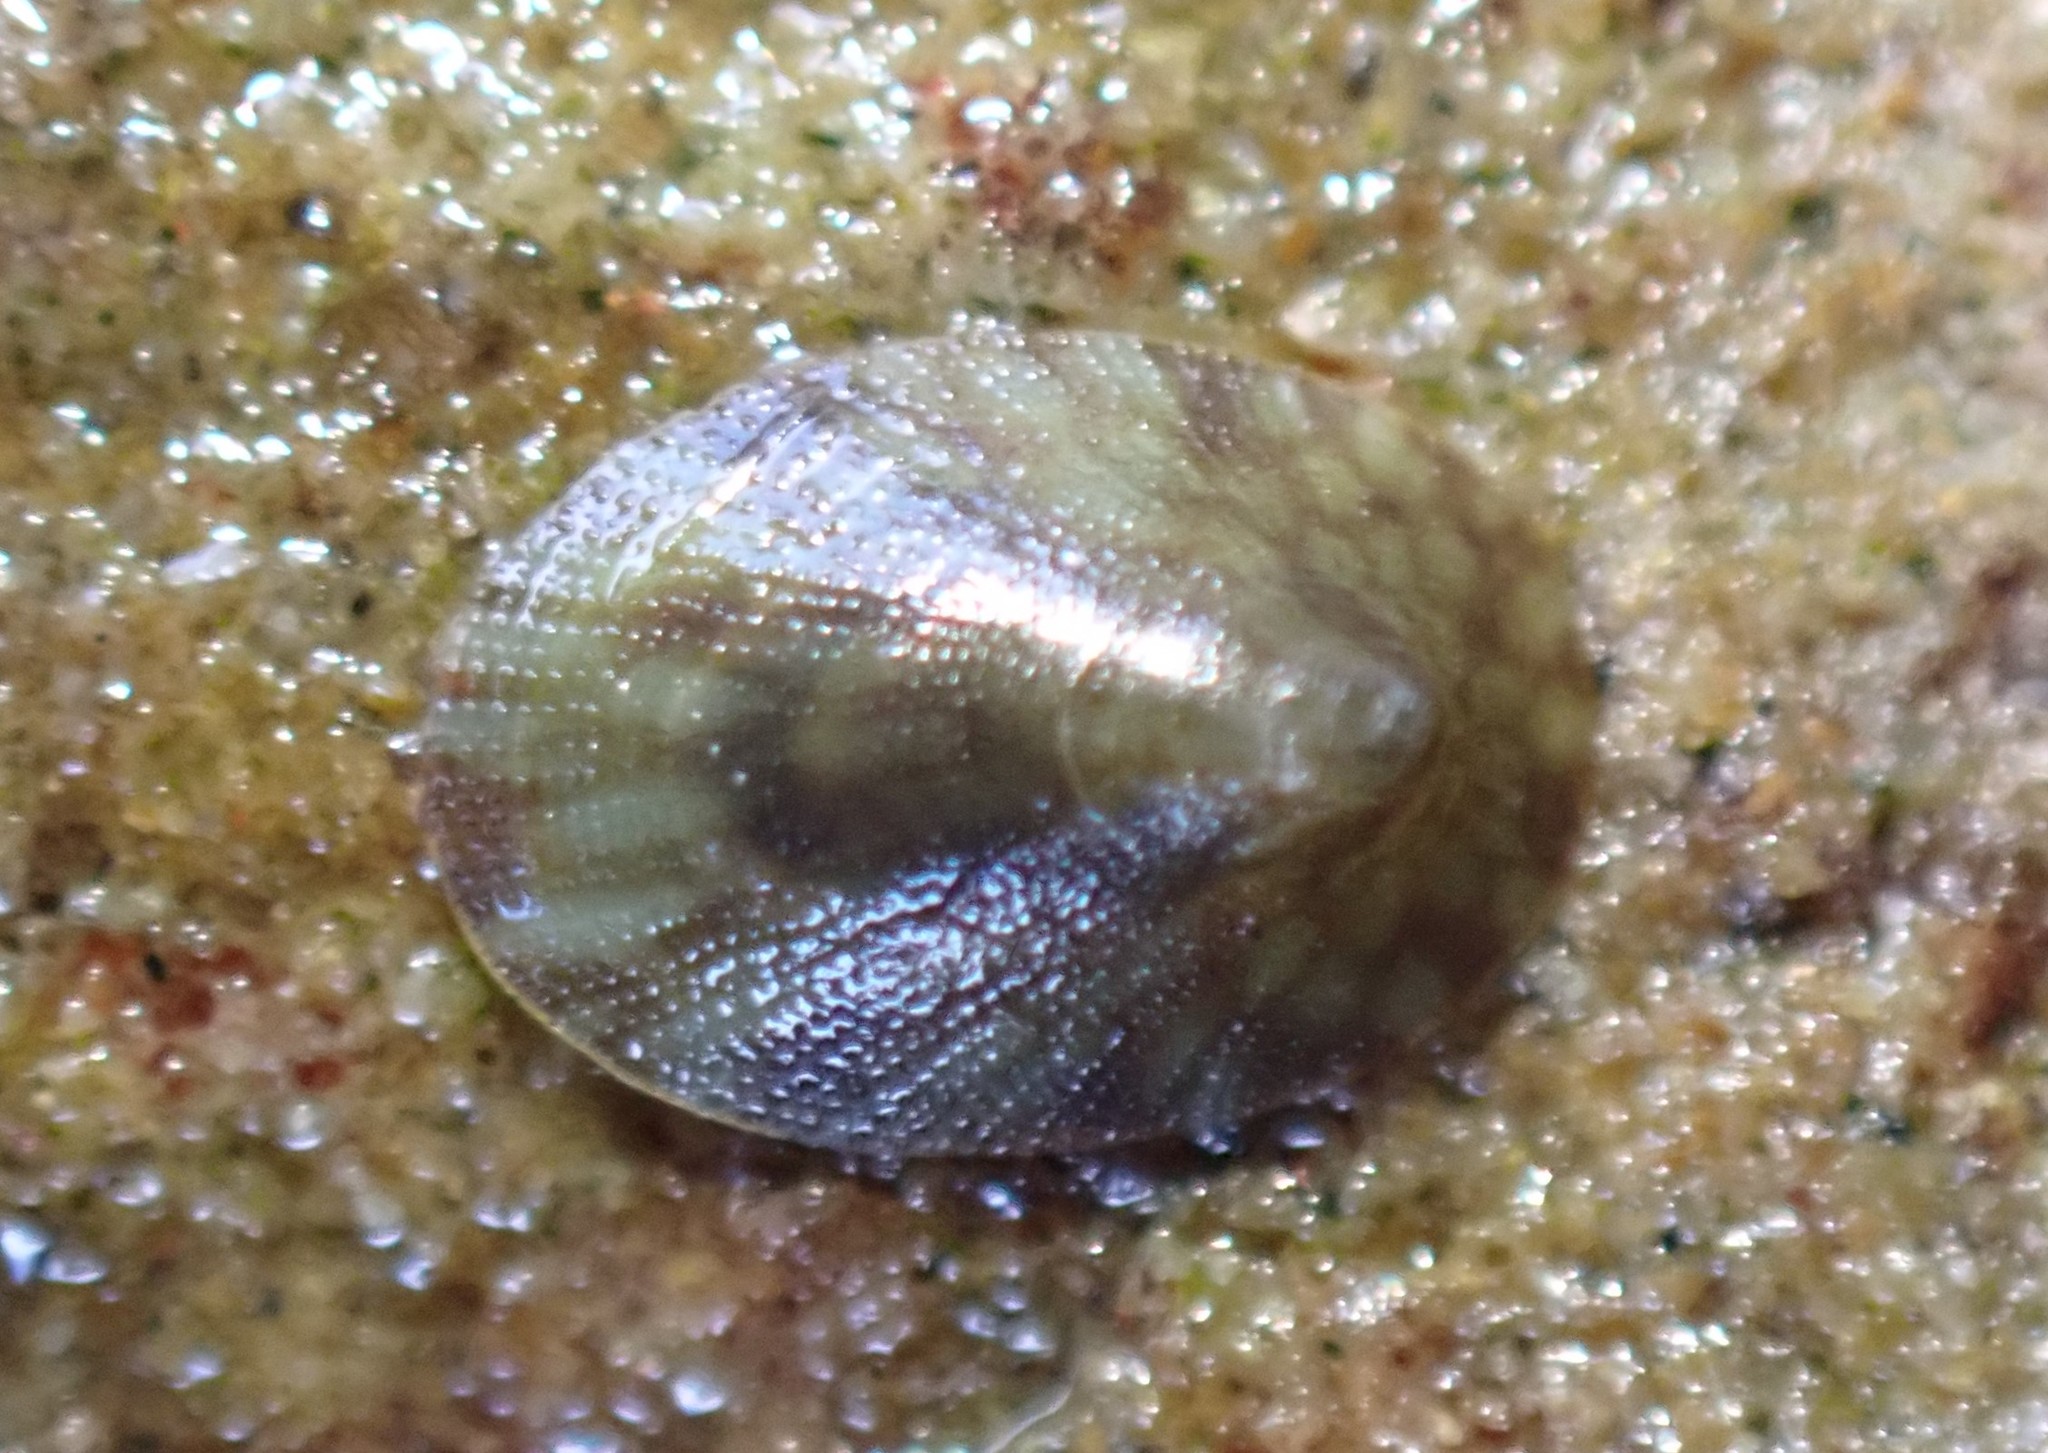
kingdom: Animalia
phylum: Mollusca
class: Gastropoda
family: Lottiidae
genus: Notoacmea
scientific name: Notoacmea
